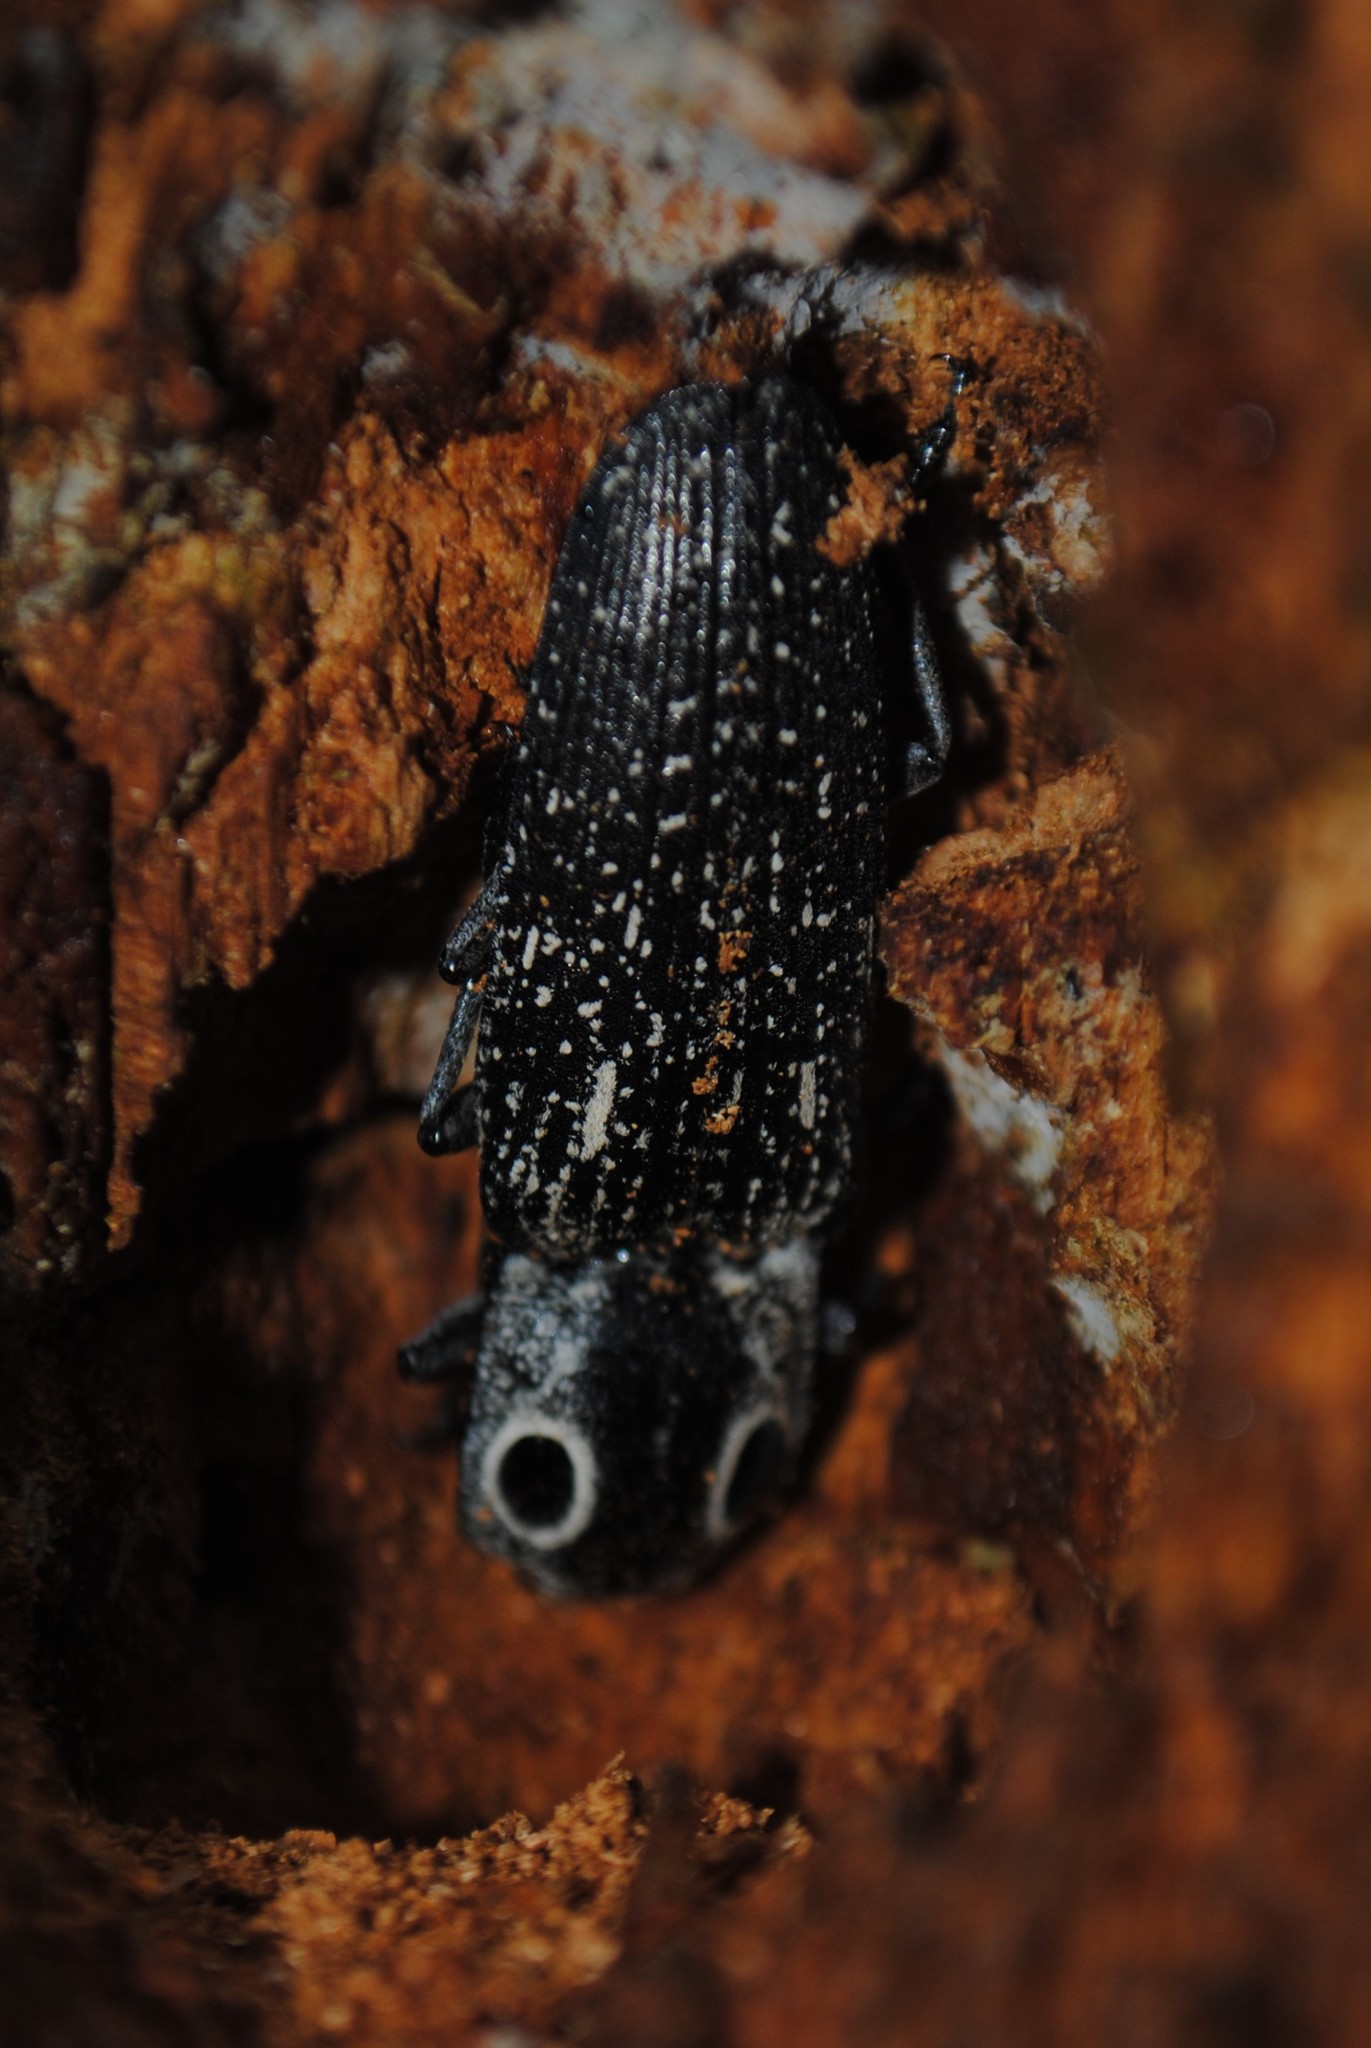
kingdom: Animalia
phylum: Arthropoda
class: Insecta
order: Coleoptera
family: Elateridae
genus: Alaus
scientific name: Alaus oculatus
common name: Eastern eyed click beetle
